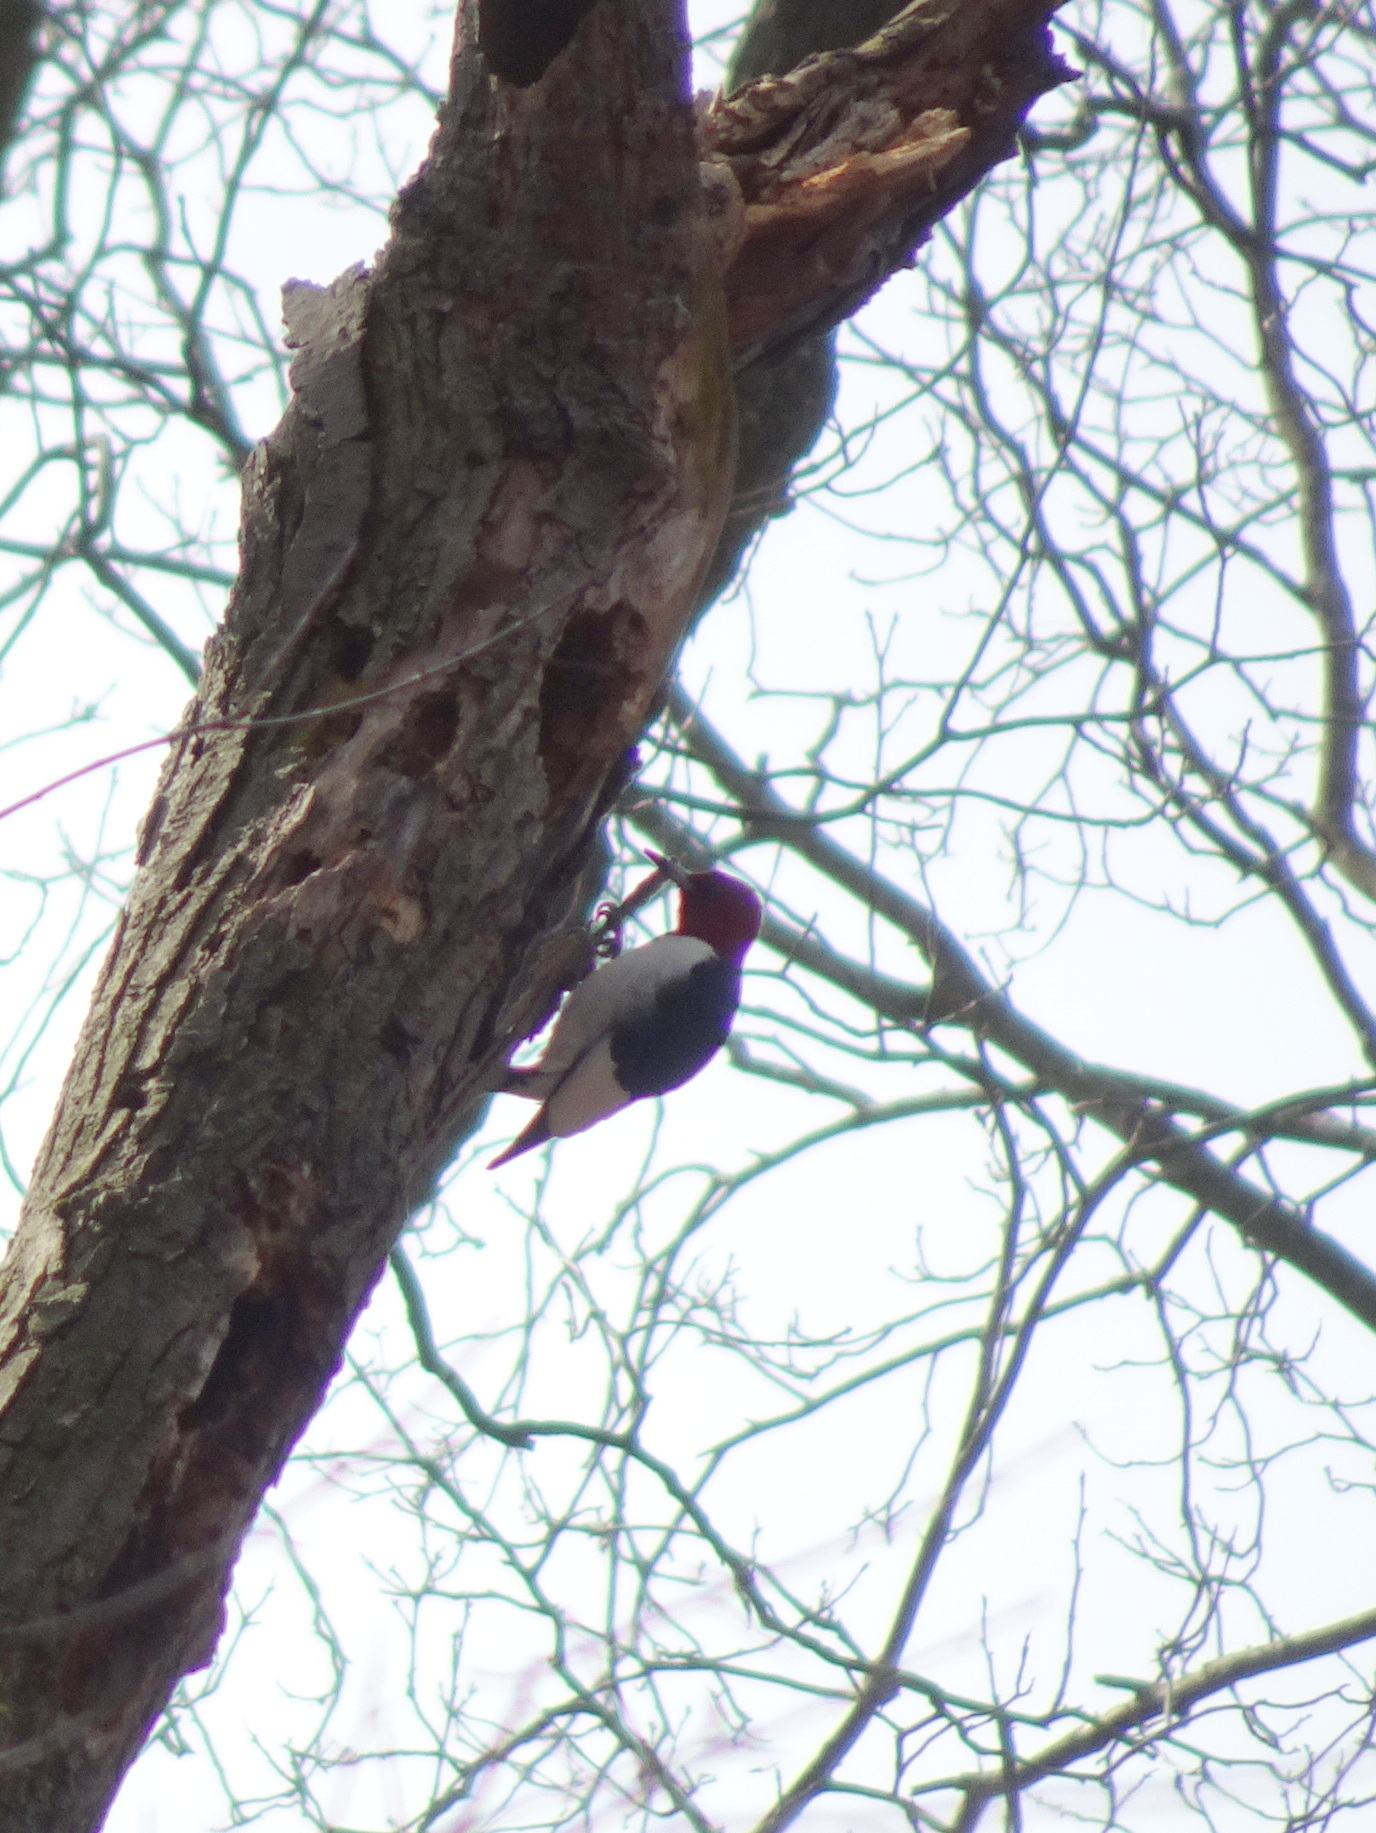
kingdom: Animalia
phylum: Chordata
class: Aves
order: Piciformes
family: Picidae
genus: Melanerpes
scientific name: Melanerpes erythrocephalus
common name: Red-headed woodpecker
